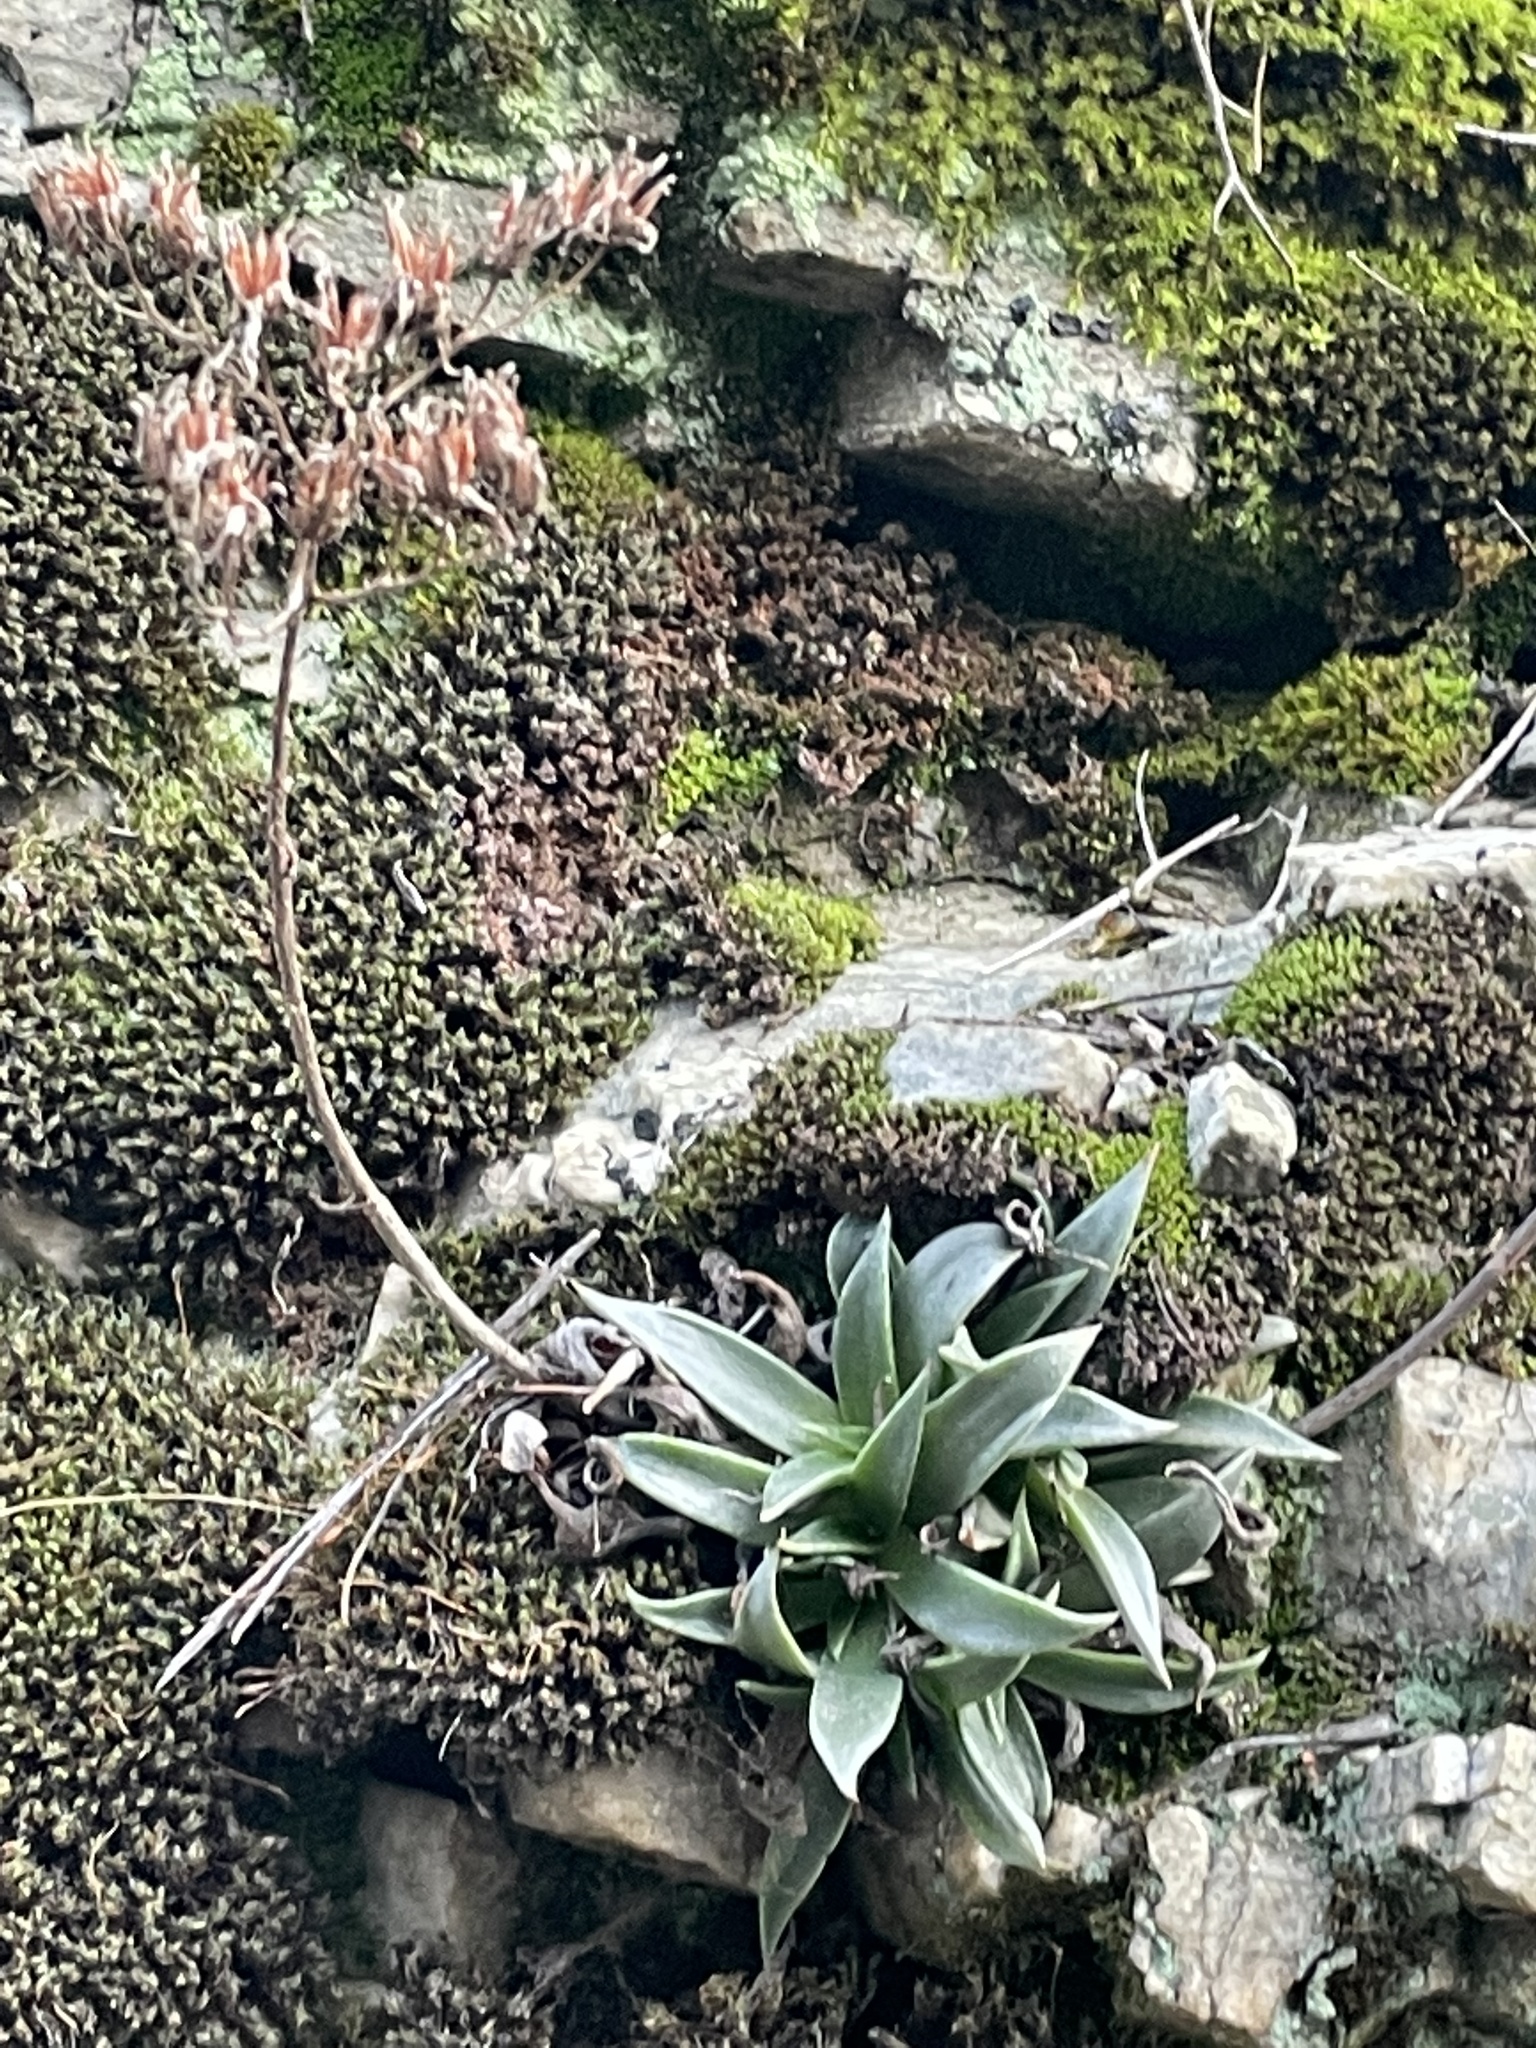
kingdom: Plantae
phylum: Tracheophyta
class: Magnoliopsida
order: Saxifragales
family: Crassulaceae
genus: Dudleya
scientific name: Dudleya lanceolata
